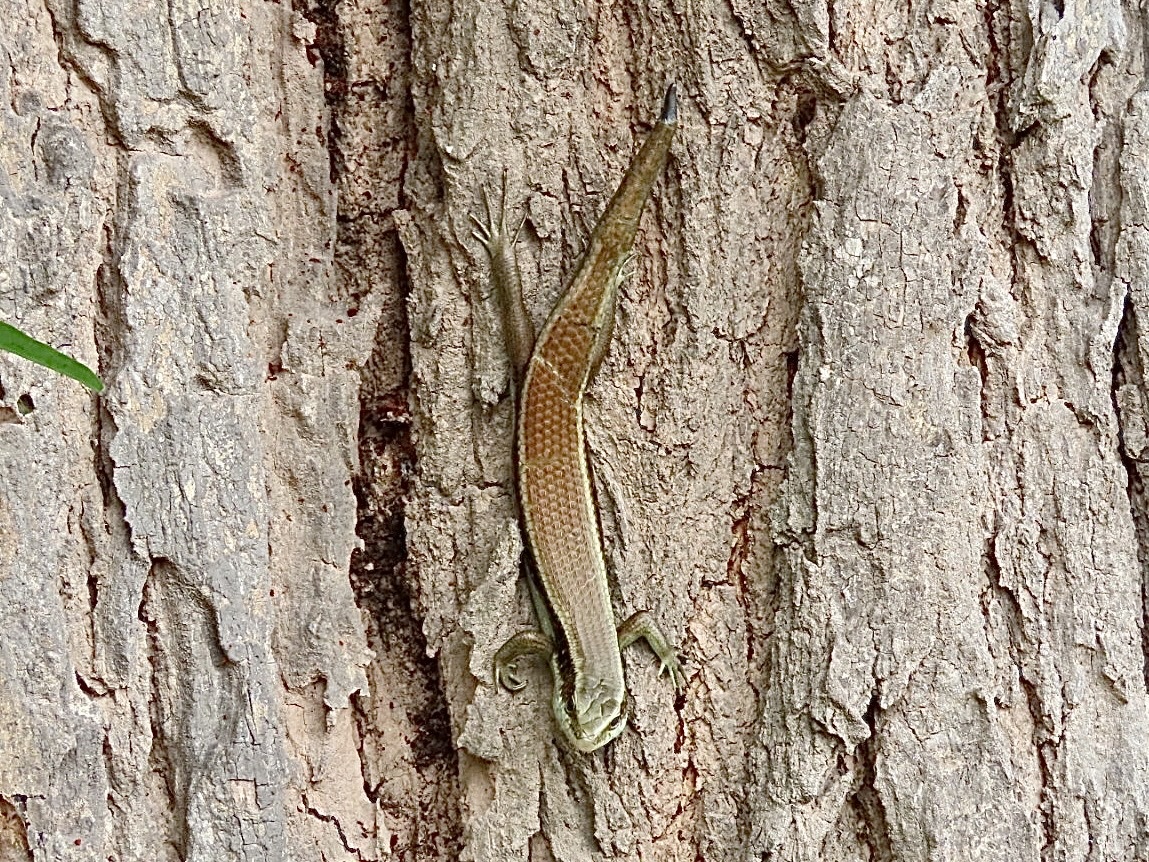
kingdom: Animalia
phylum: Chordata
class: Squamata
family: Scincidae
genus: Eutropis
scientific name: Eutropis longicaudata
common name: Long-tailed sun skink
